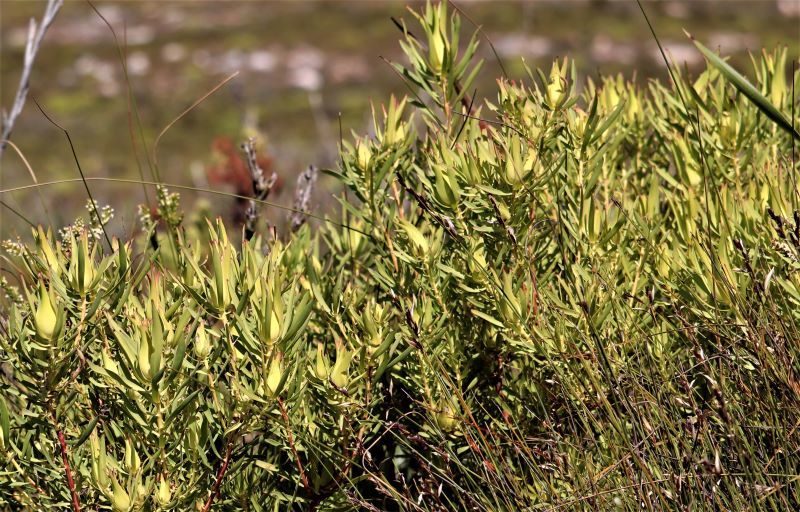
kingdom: Plantae
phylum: Tracheophyta
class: Magnoliopsida
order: Proteales
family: Proteaceae
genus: Leucadendron
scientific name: Leucadendron salignum
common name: Common sunshine conebush
